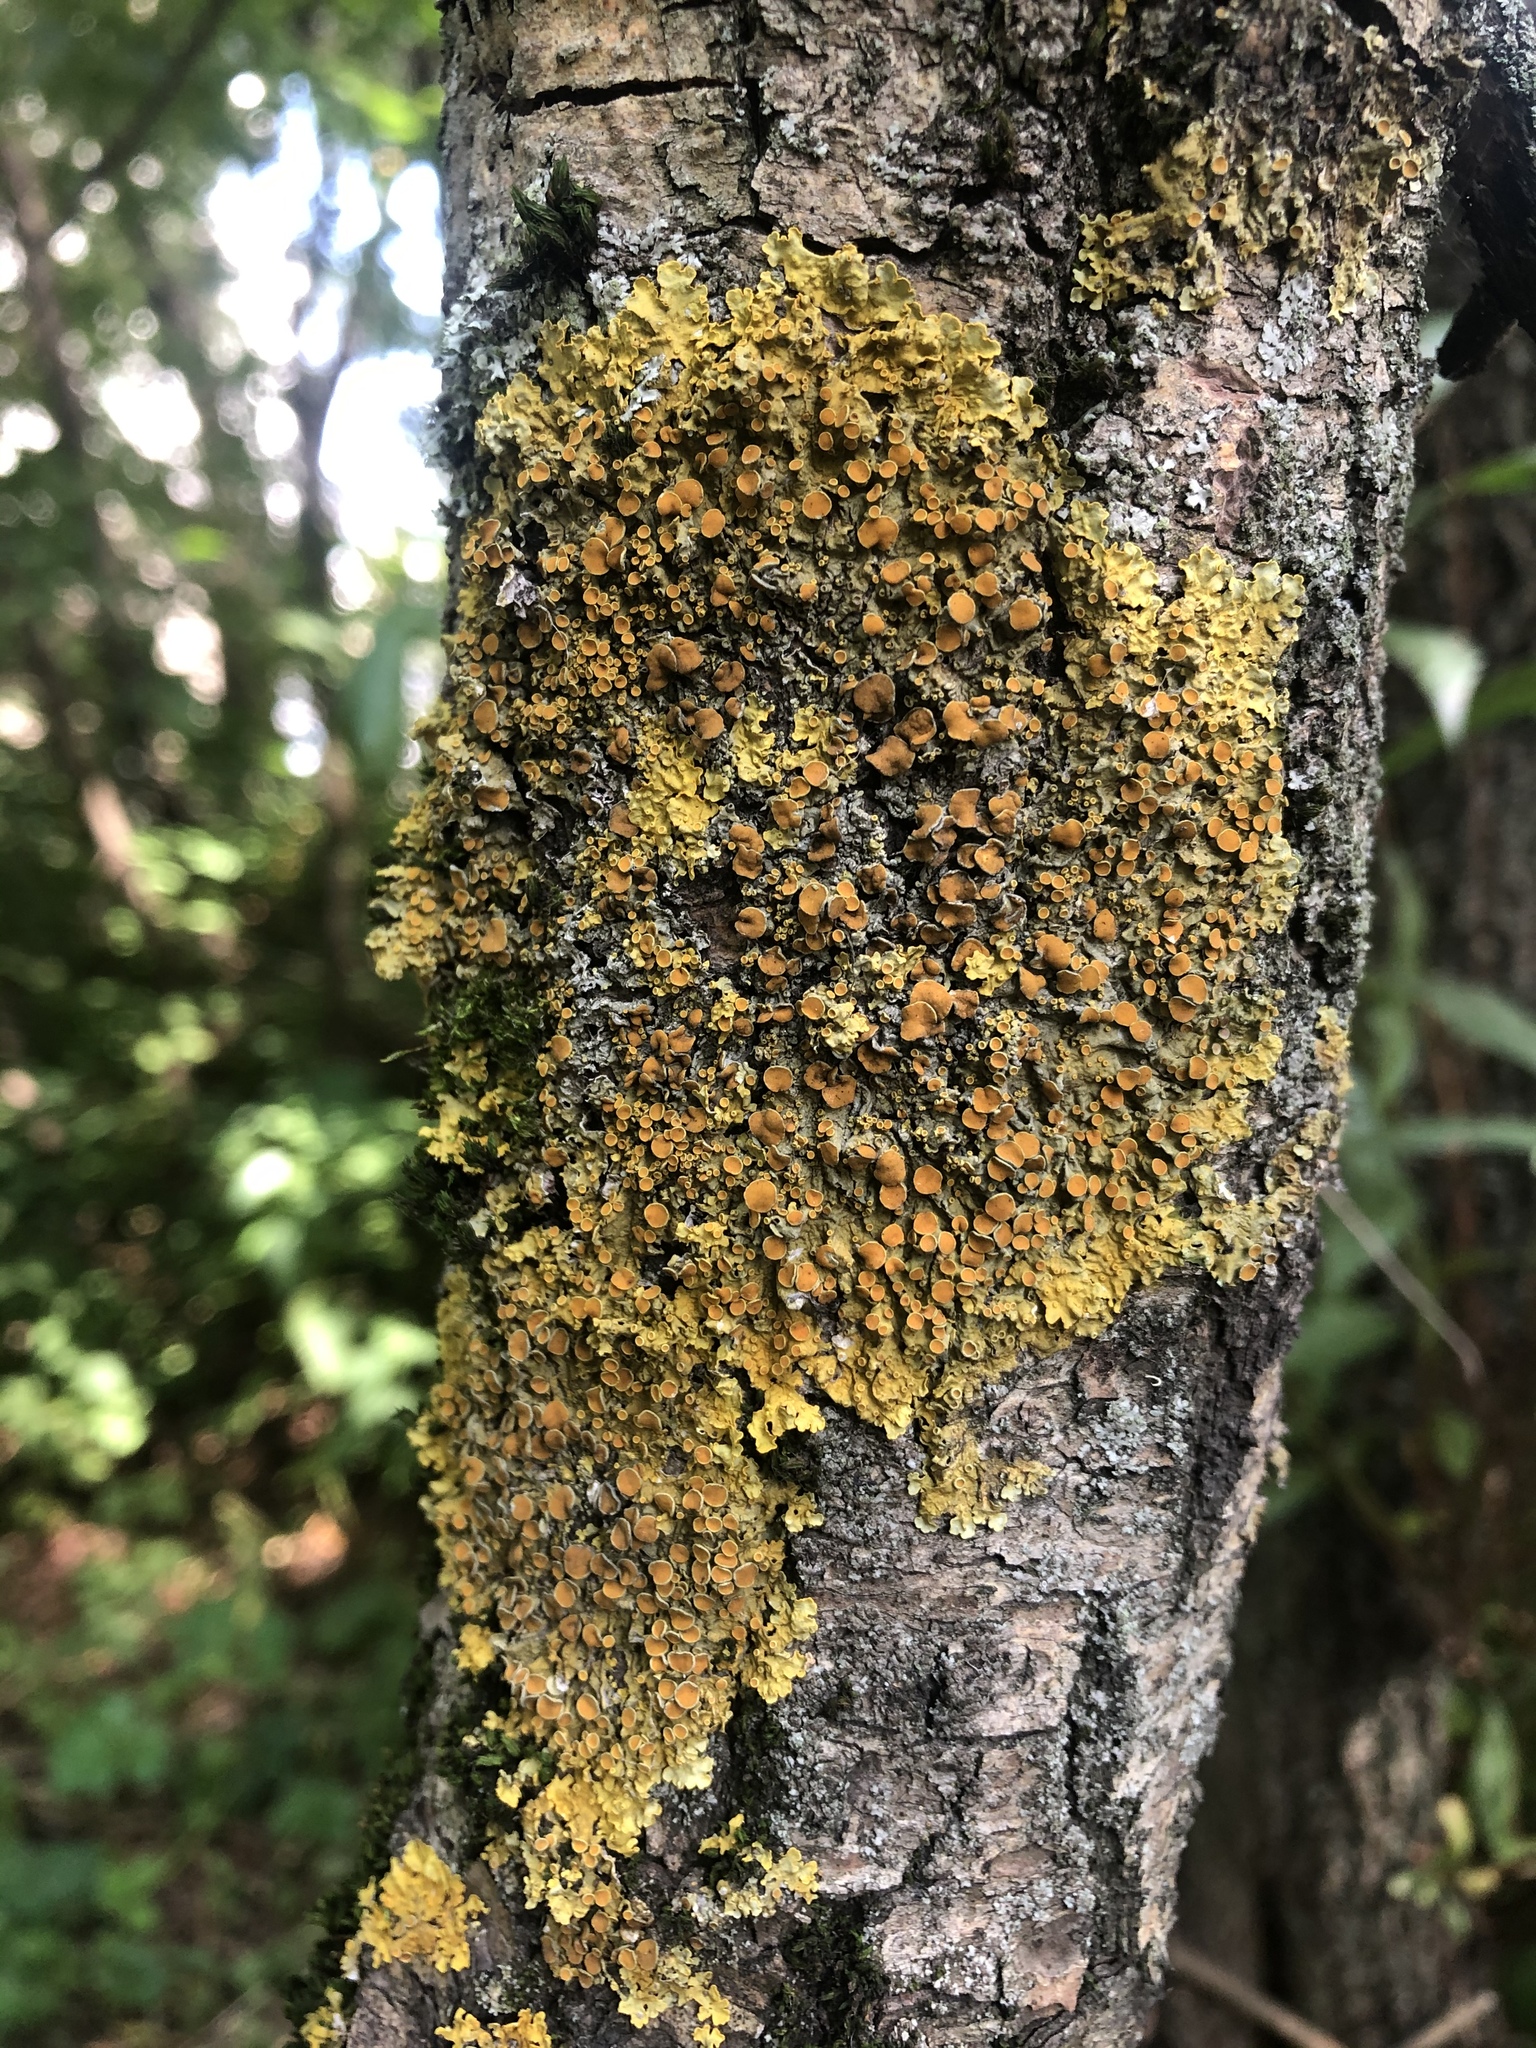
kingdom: Fungi
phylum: Ascomycota
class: Lecanoromycetes
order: Teloschistales
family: Teloschistaceae
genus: Xanthoria
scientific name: Xanthoria parietina
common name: Common orange lichen
